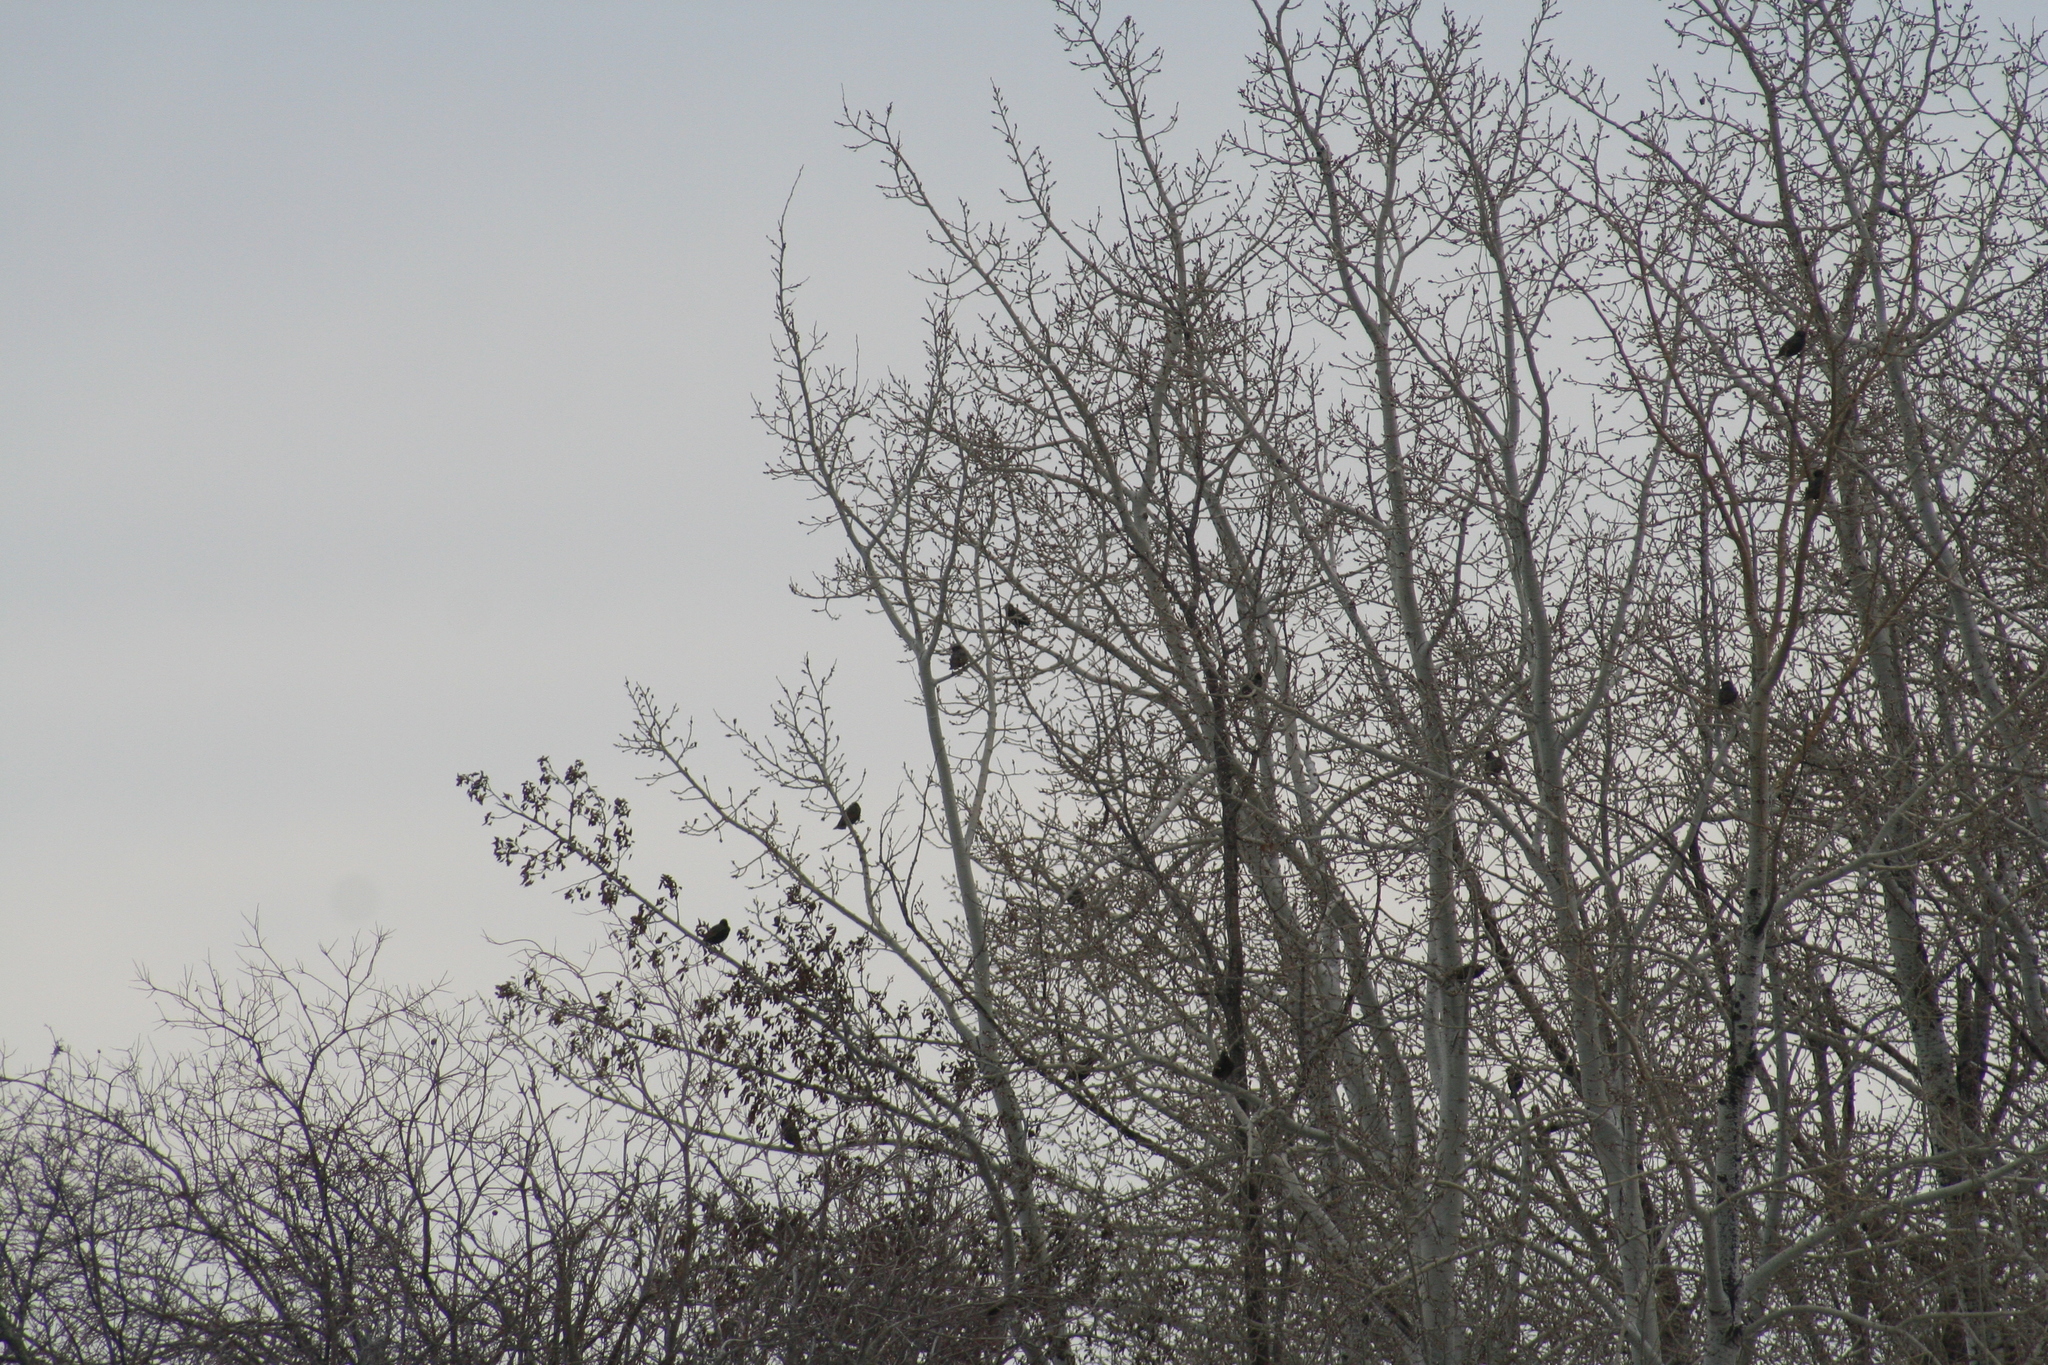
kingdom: Animalia
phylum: Chordata
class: Aves
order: Passeriformes
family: Sturnidae
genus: Sturnus
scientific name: Sturnus vulgaris
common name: Common starling
